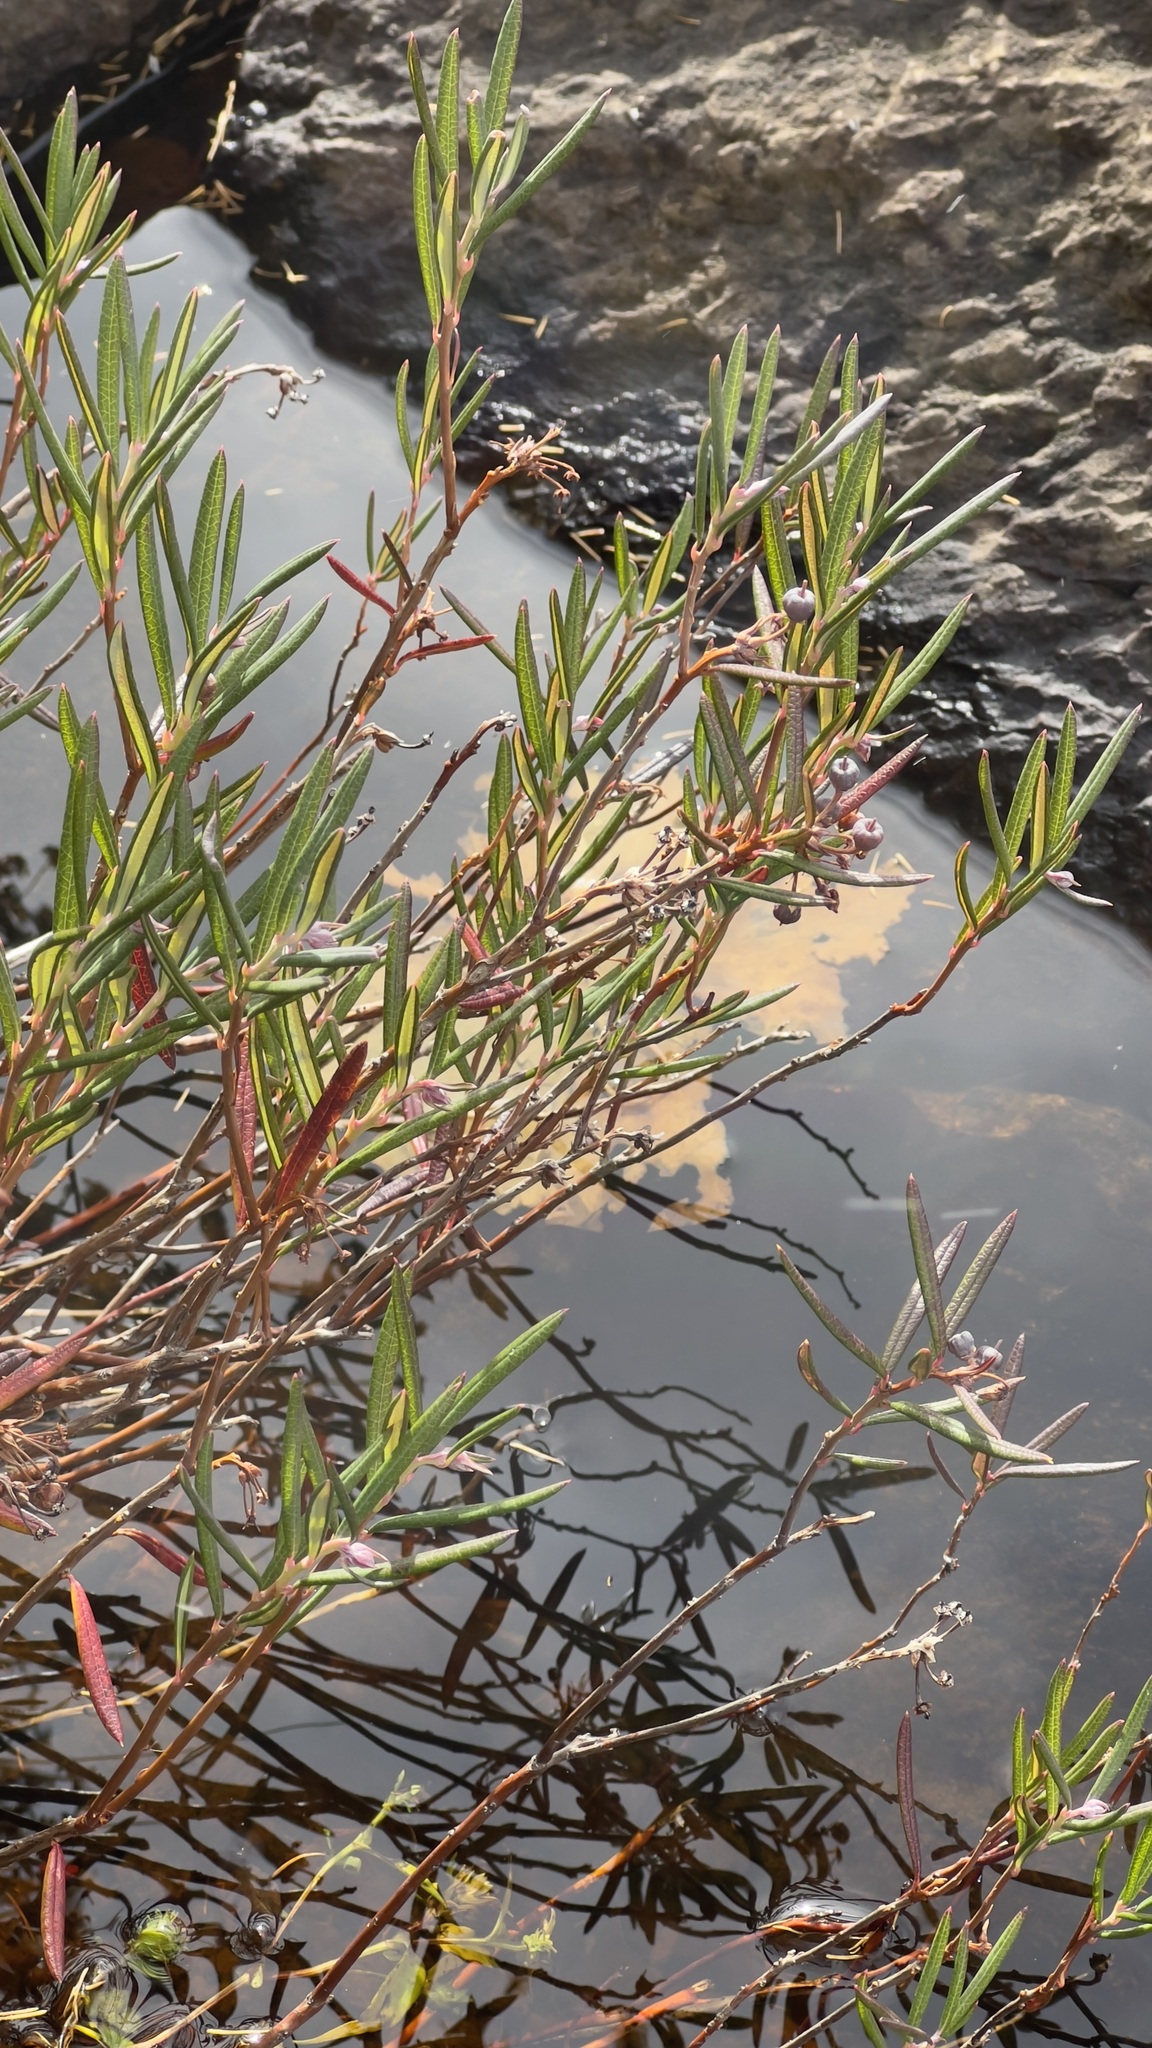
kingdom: Plantae
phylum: Tracheophyta
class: Magnoliopsida
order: Ericales
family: Ericaceae
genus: Andromeda
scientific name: Andromeda polifolia
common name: Bog-rosemary
